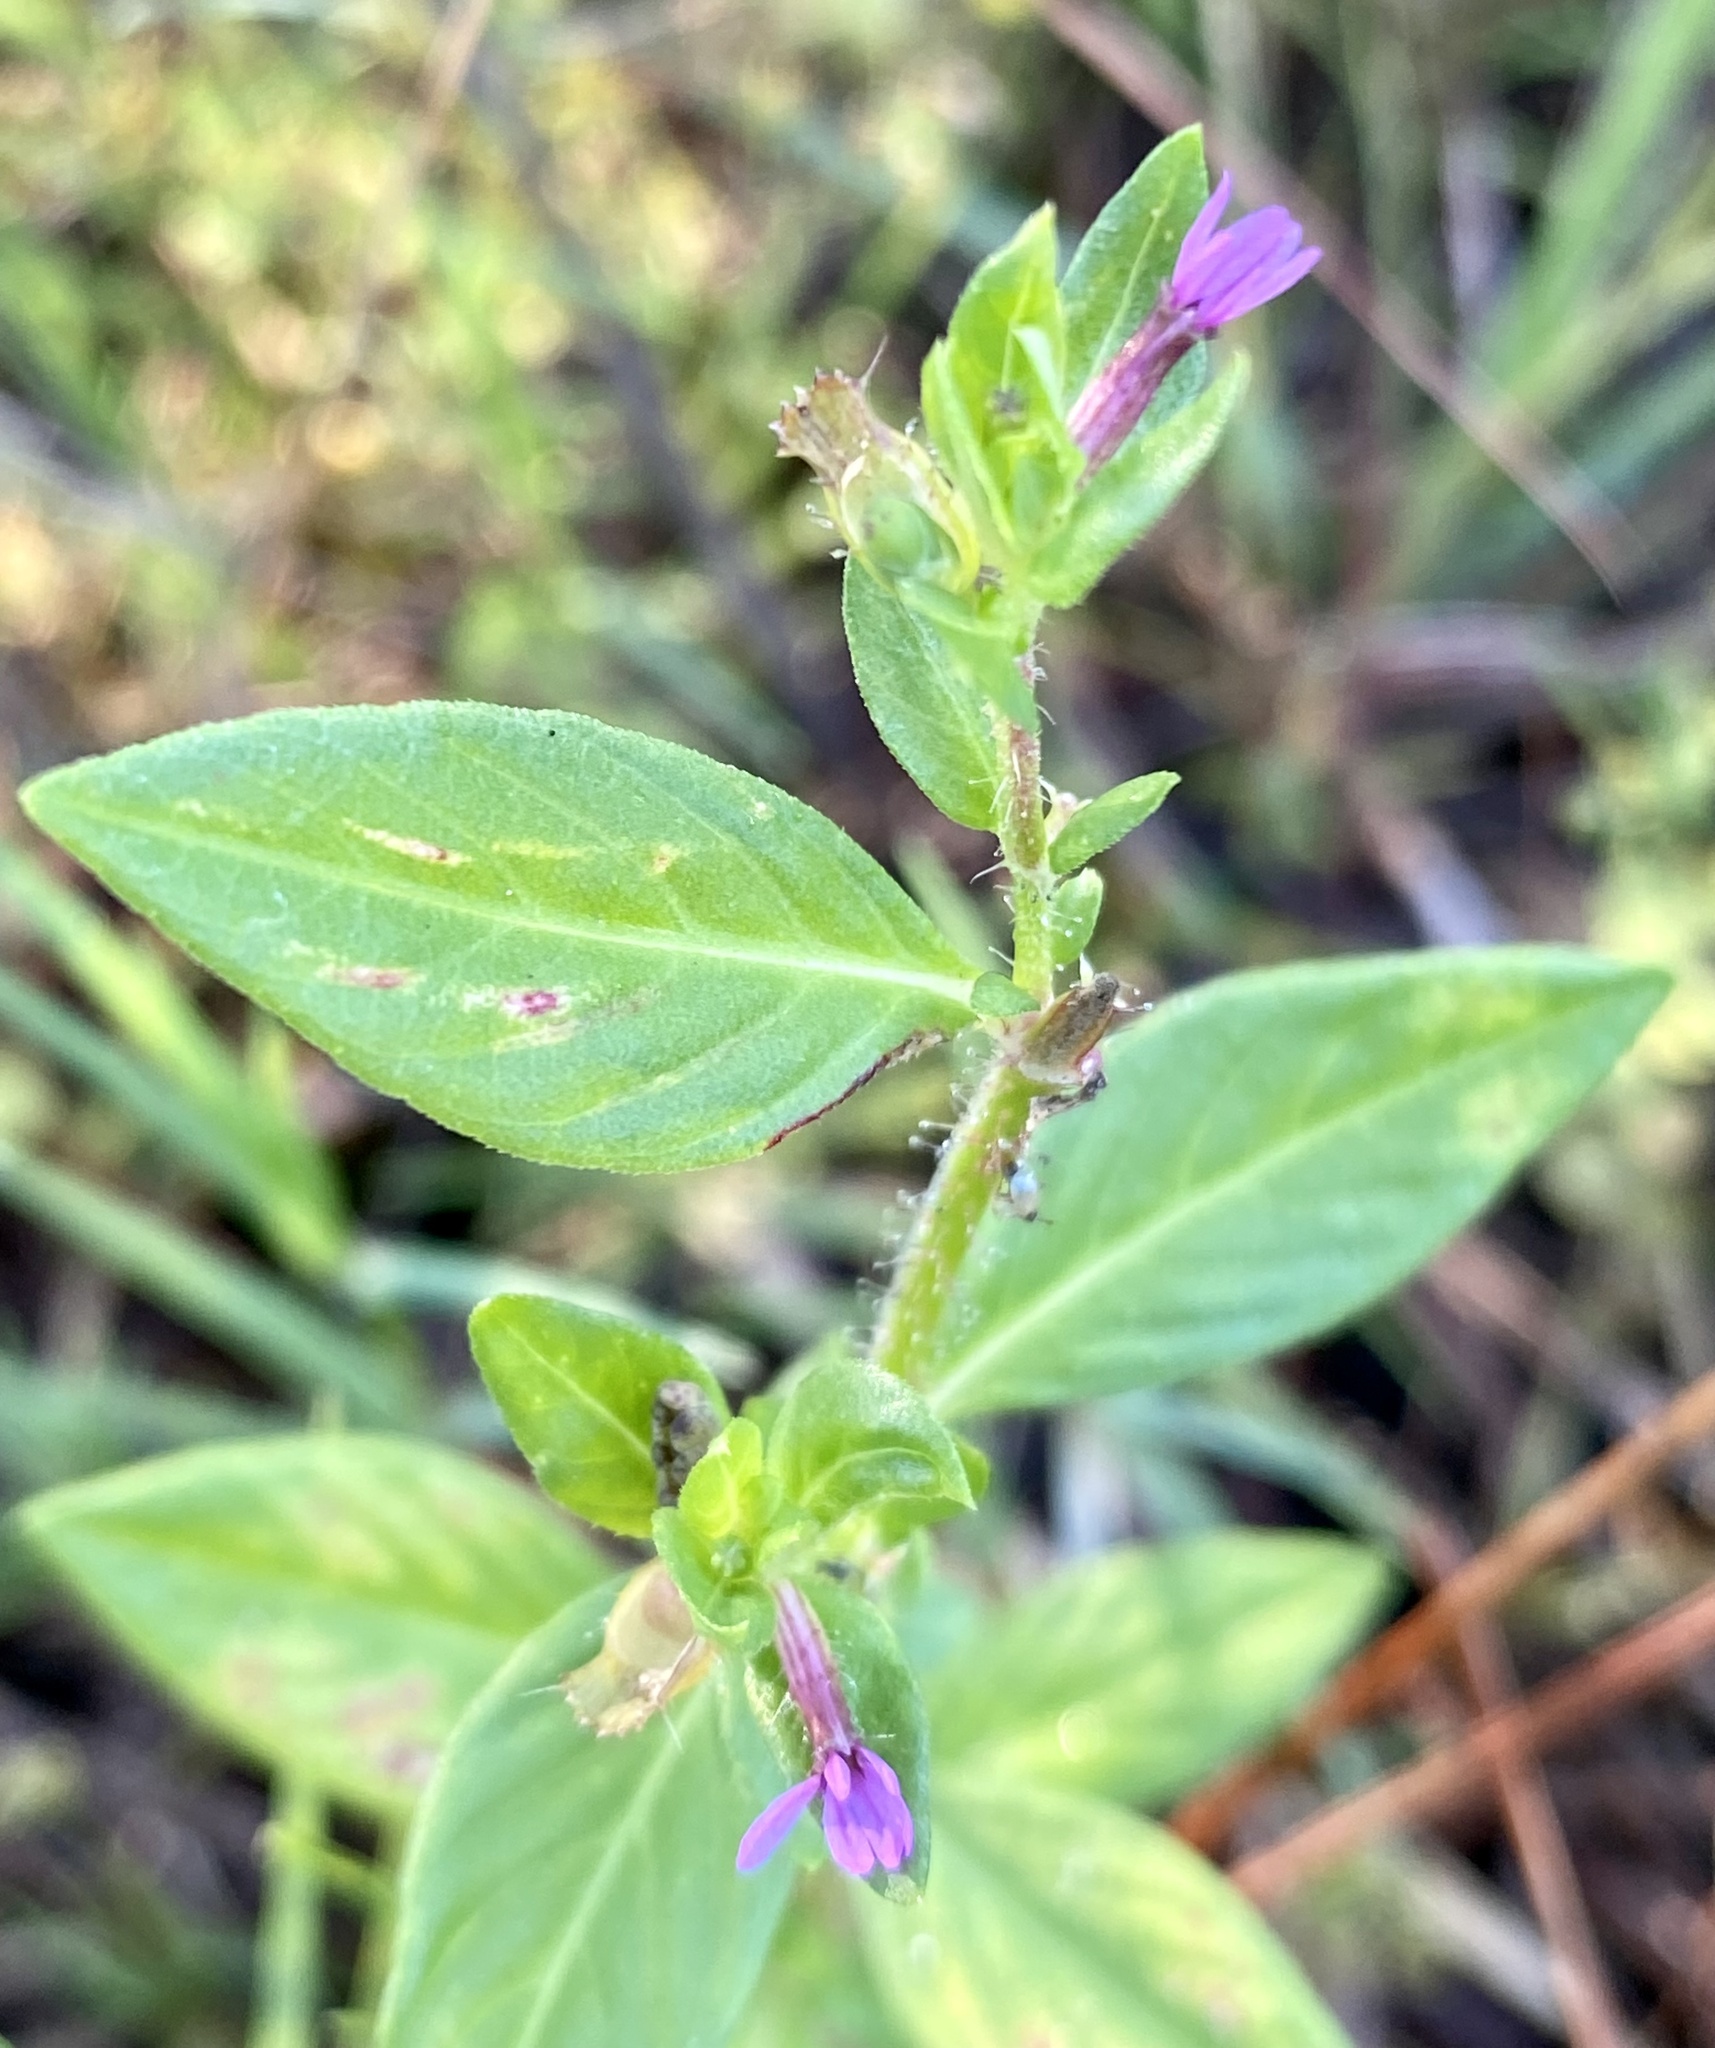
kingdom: Plantae
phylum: Tracheophyta
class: Magnoliopsida
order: Myrtales
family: Lythraceae
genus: Cuphea
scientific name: Cuphea carthagenensis
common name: Colombian waxweed
